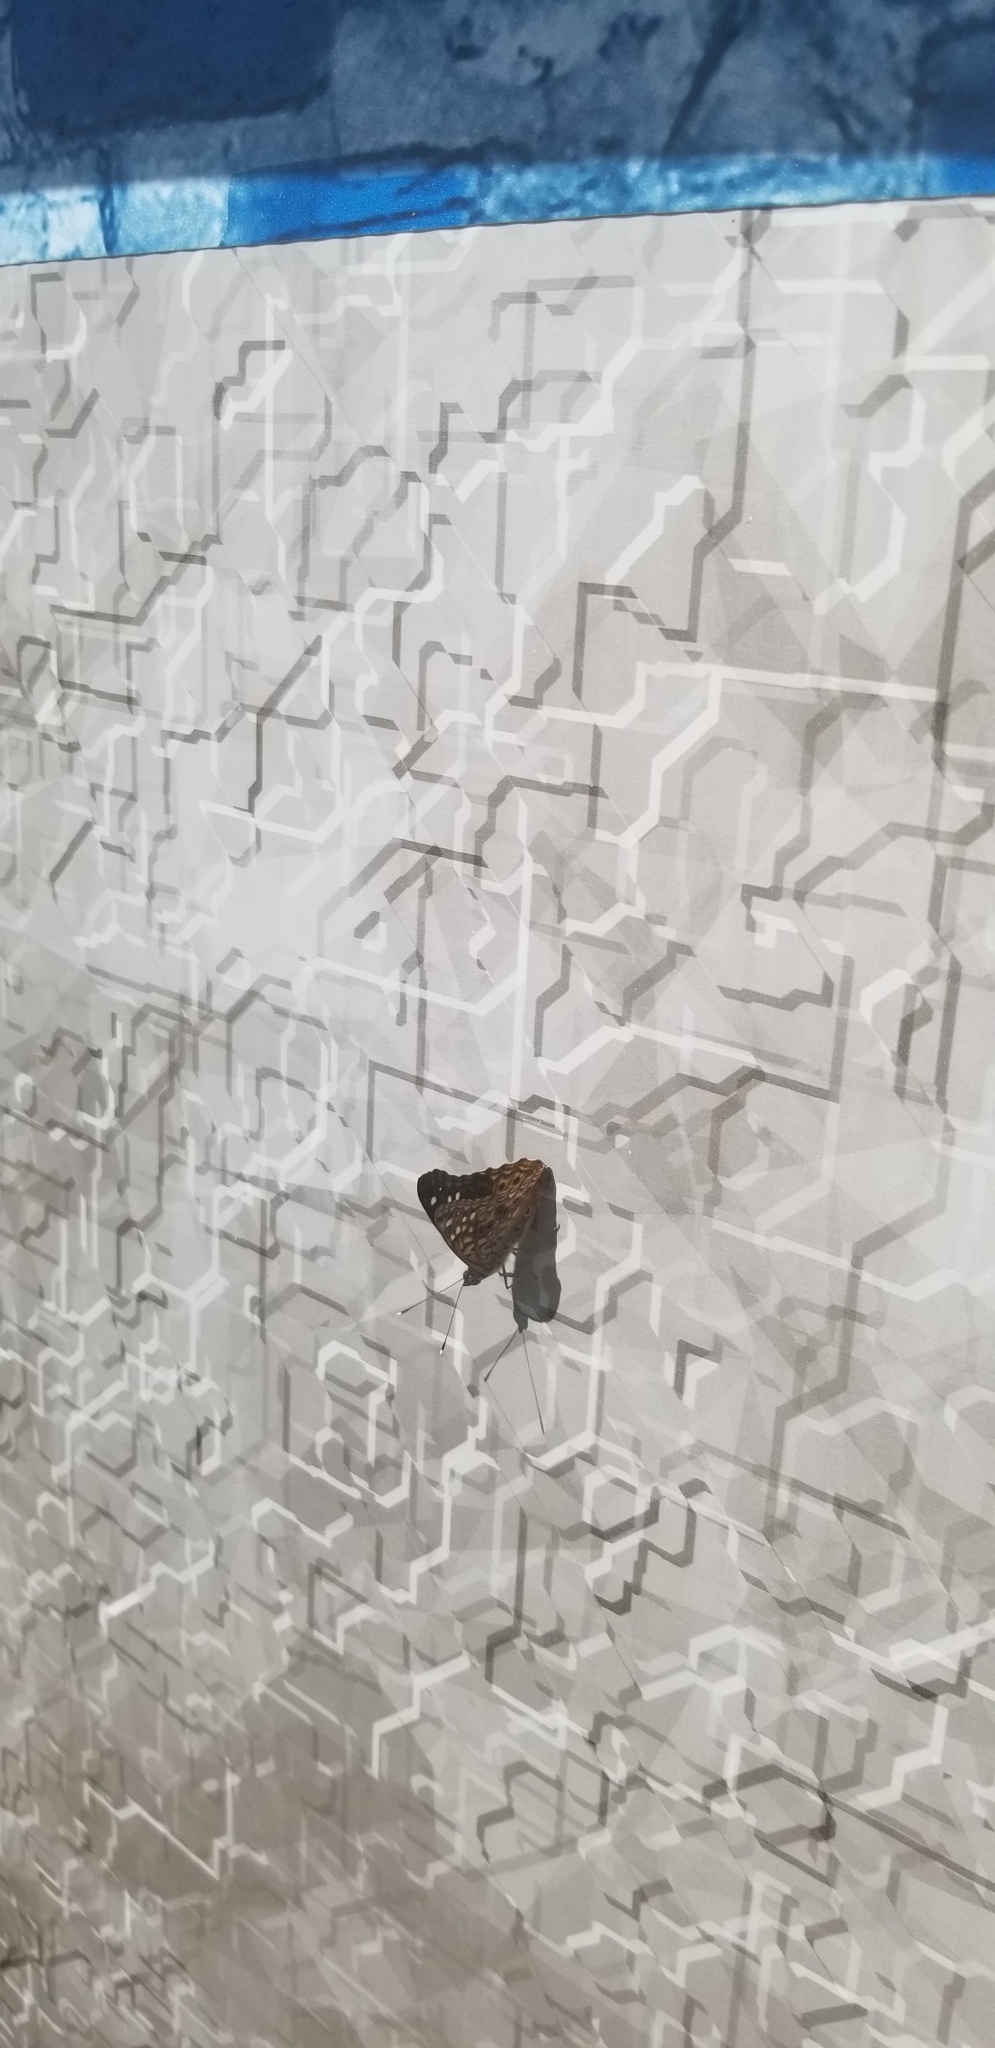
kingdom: Animalia
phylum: Arthropoda
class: Insecta
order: Lepidoptera
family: Nymphalidae
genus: Asterocampa
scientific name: Asterocampa celtis
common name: Hackberry emperor
